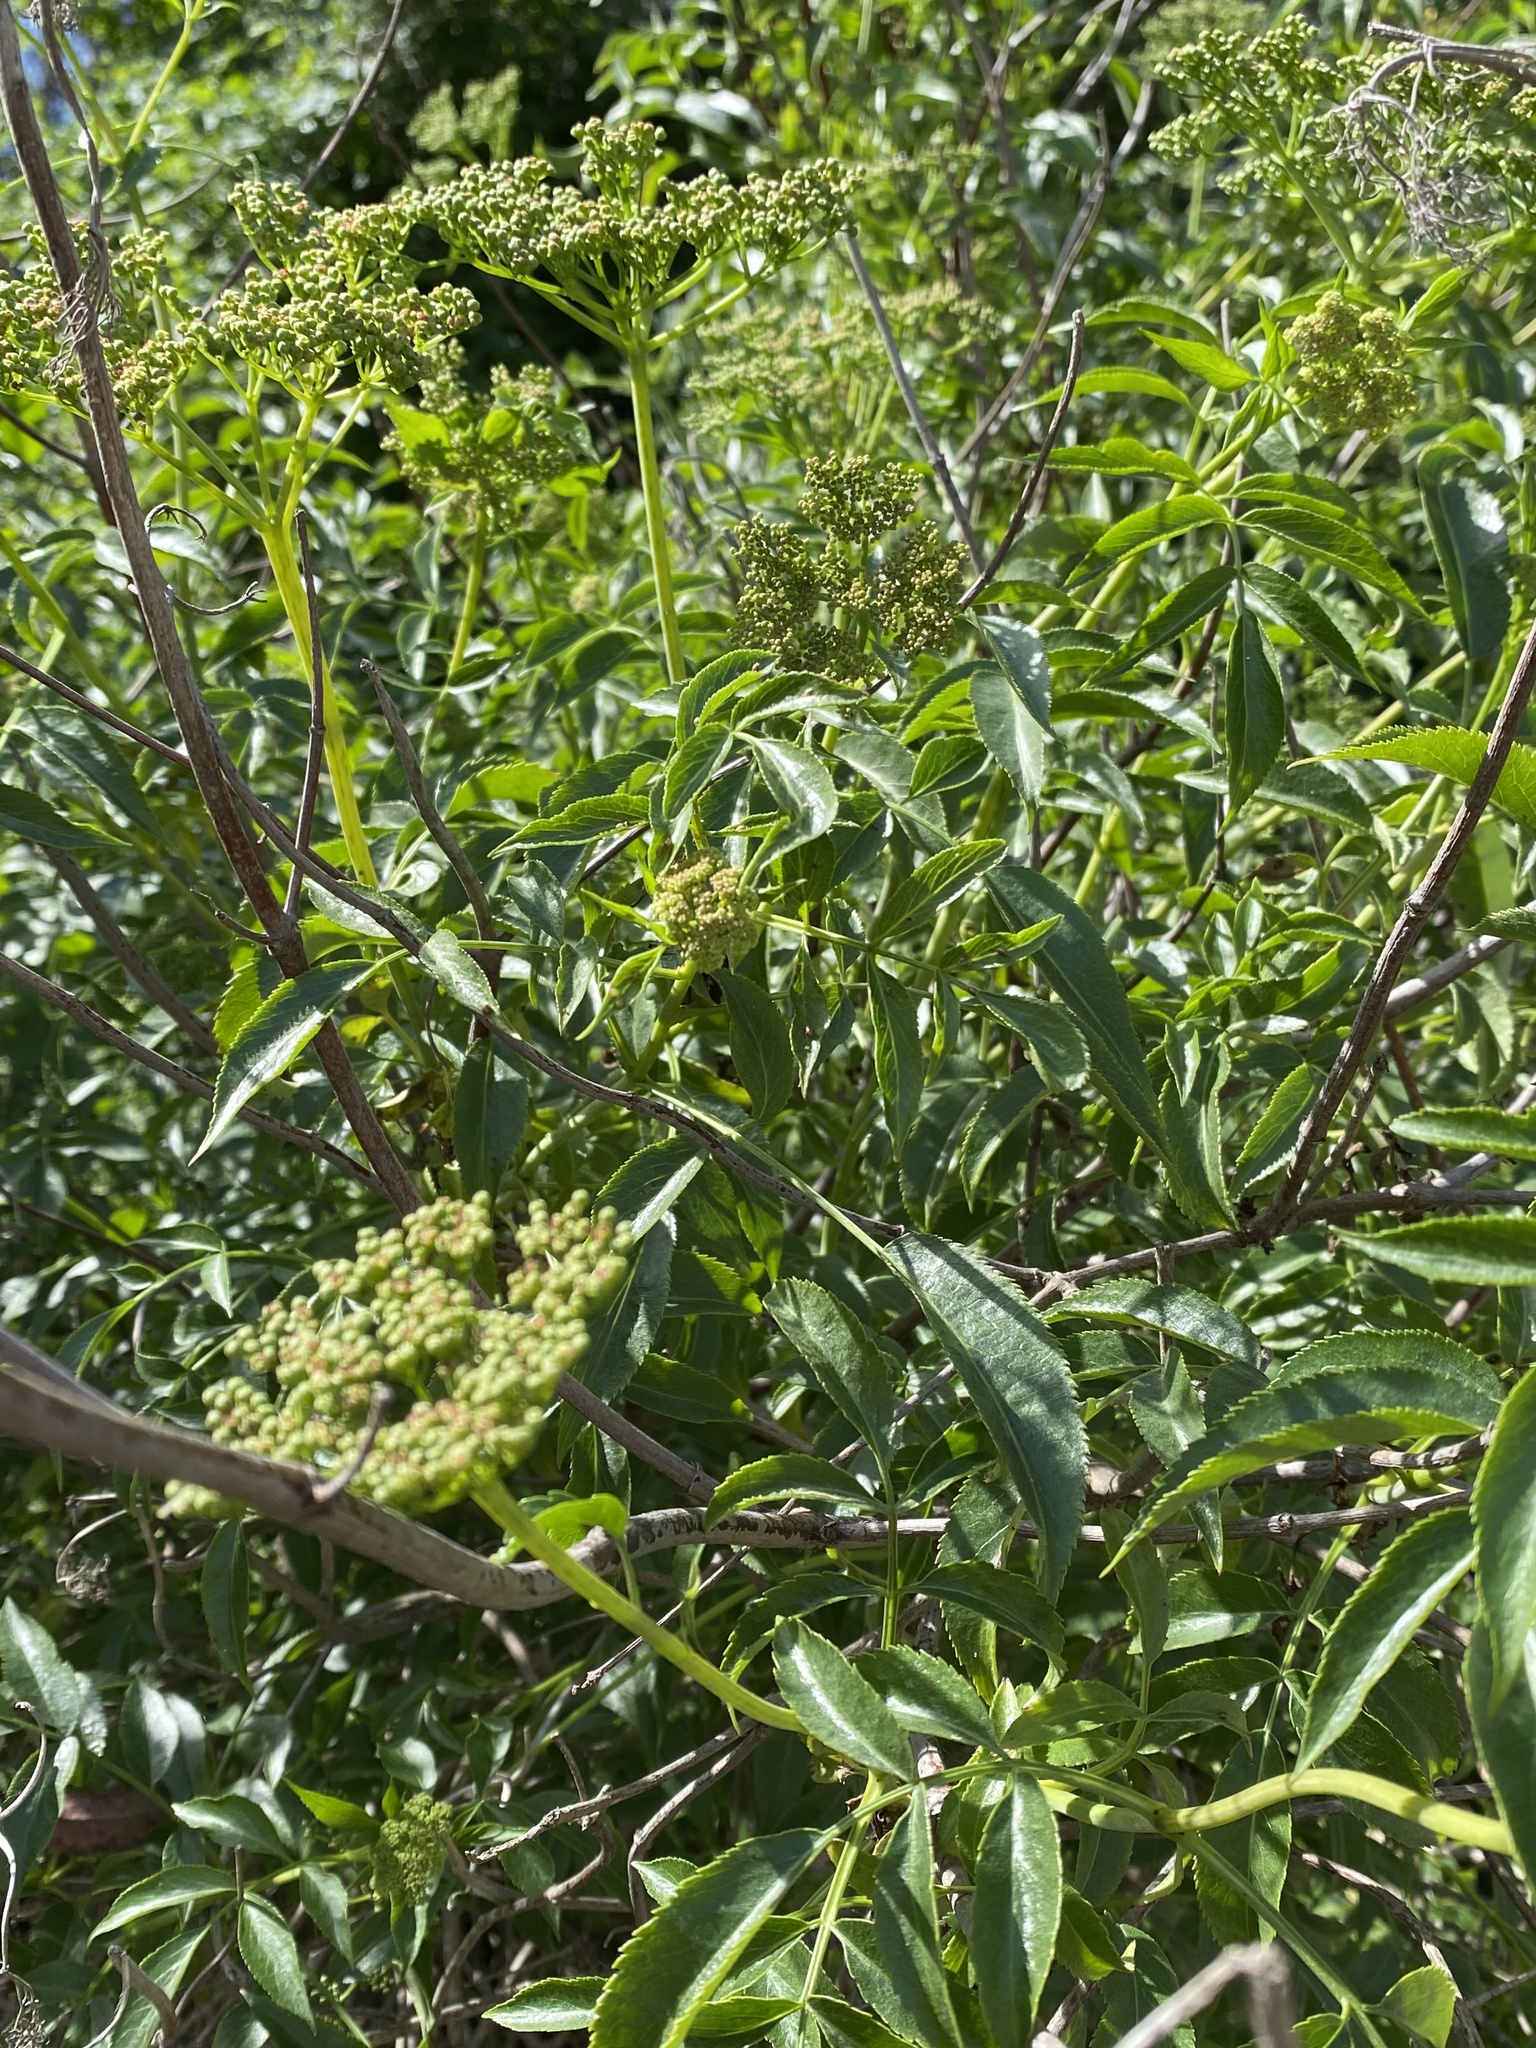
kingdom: Plantae
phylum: Tracheophyta
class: Magnoliopsida
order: Dipsacales
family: Viburnaceae
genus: Sambucus
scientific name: Sambucus cerulea
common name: Blue elder
